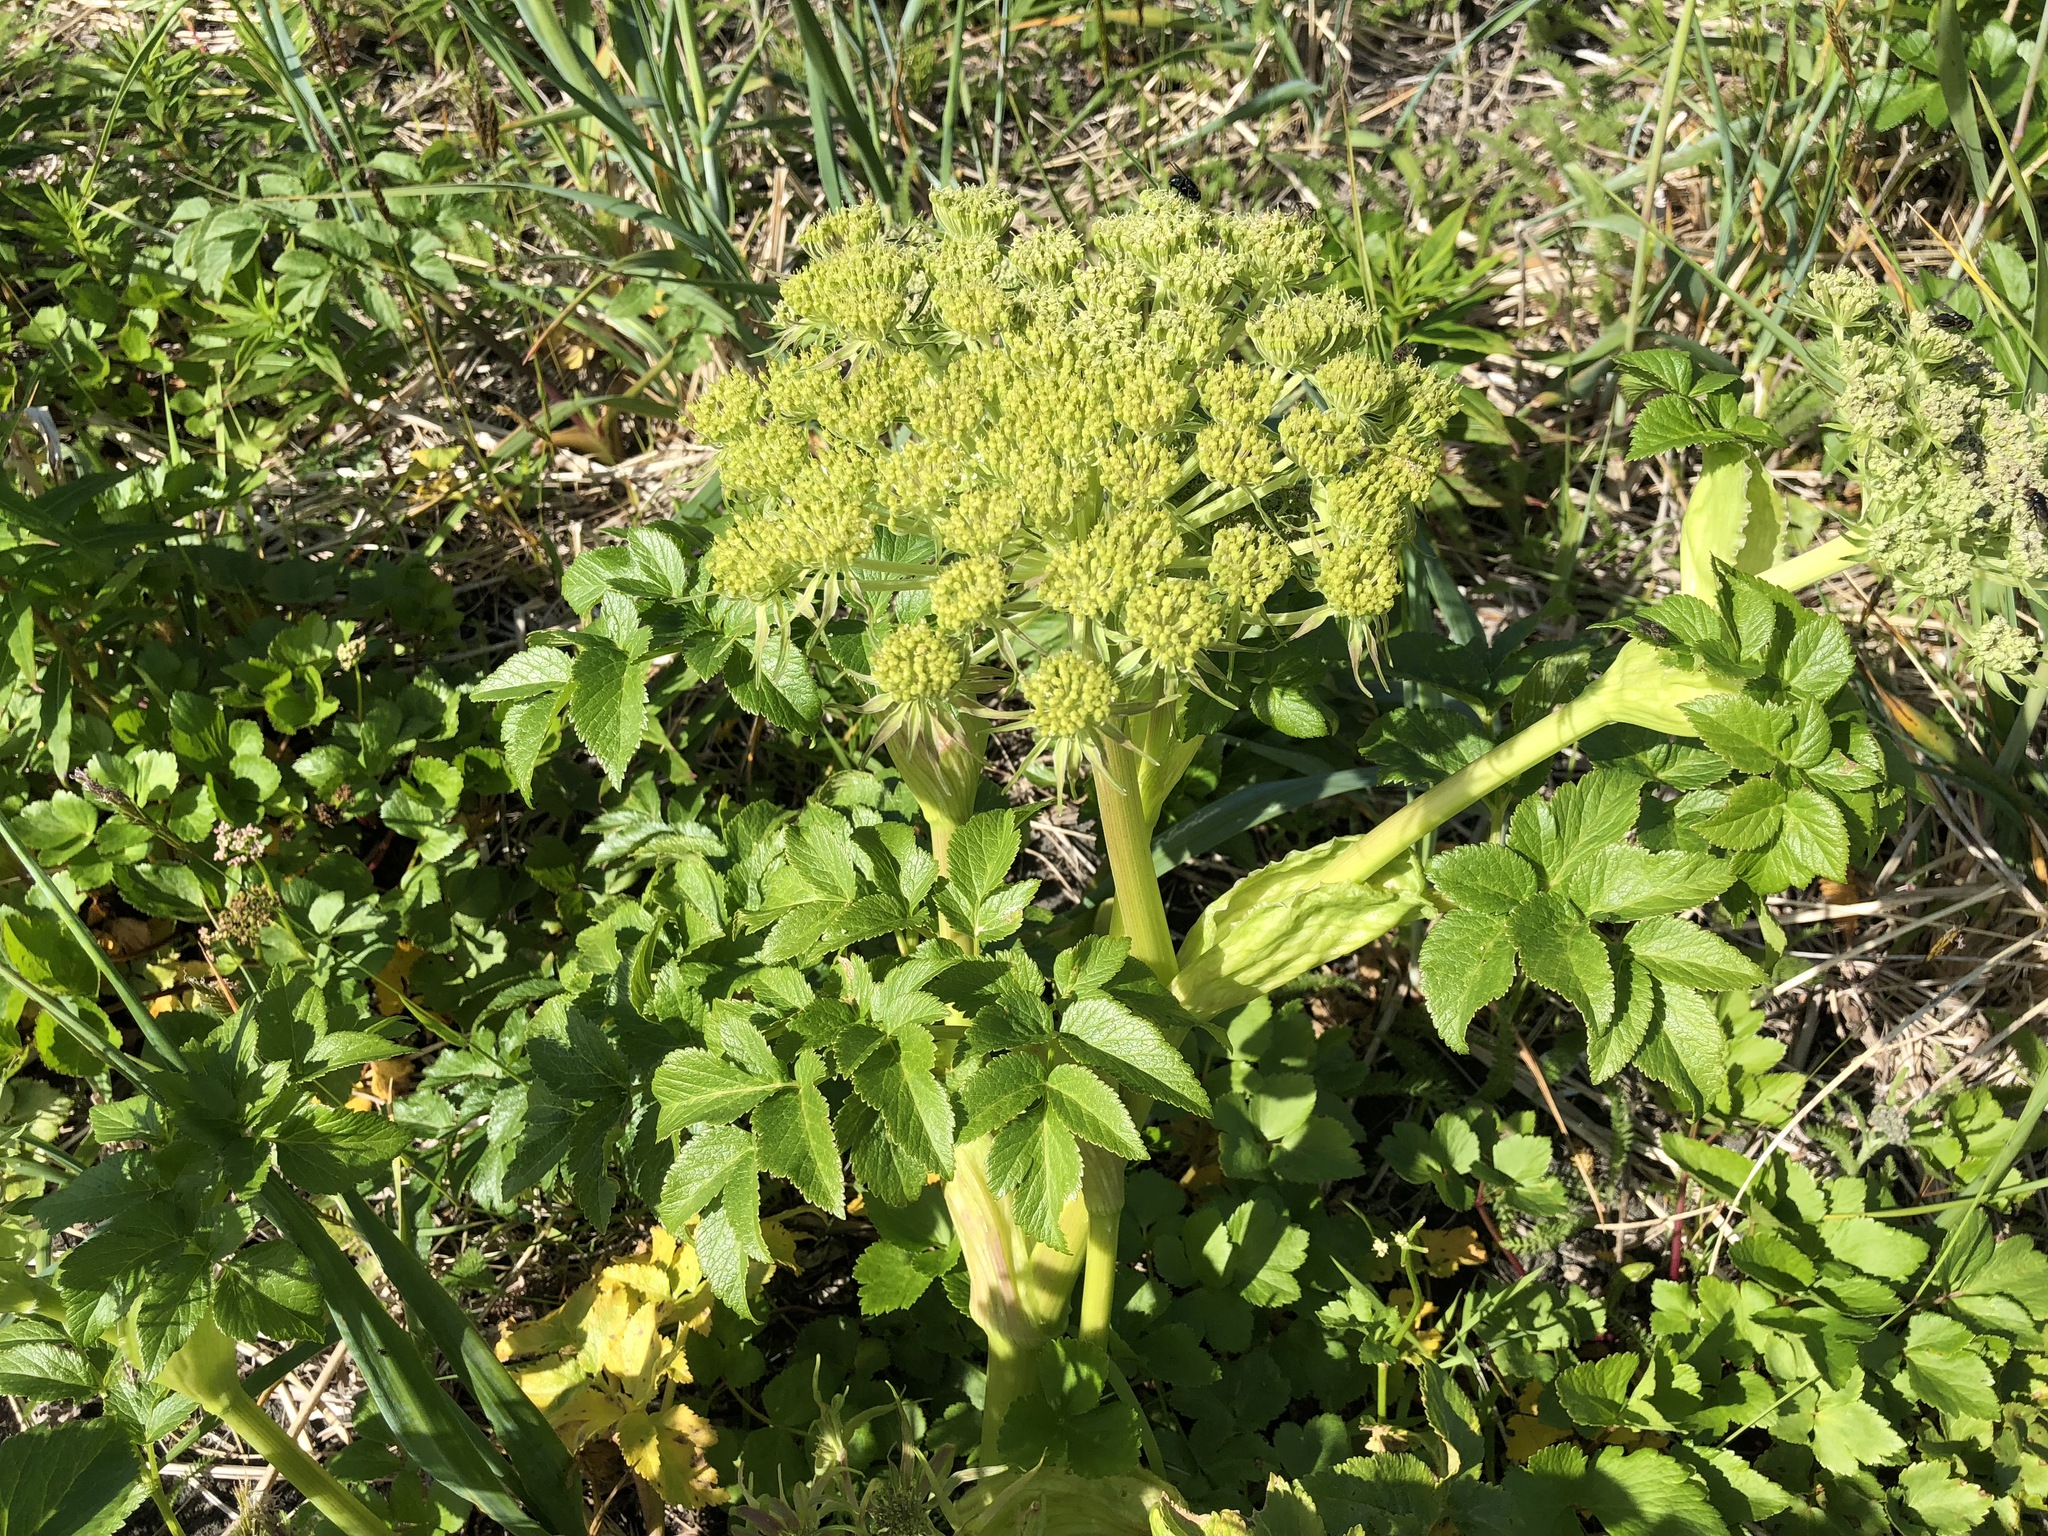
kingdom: Plantae
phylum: Tracheophyta
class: Magnoliopsida
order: Apiales
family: Apiaceae
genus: Angelica
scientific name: Angelica lucida
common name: Seabeach angelica
